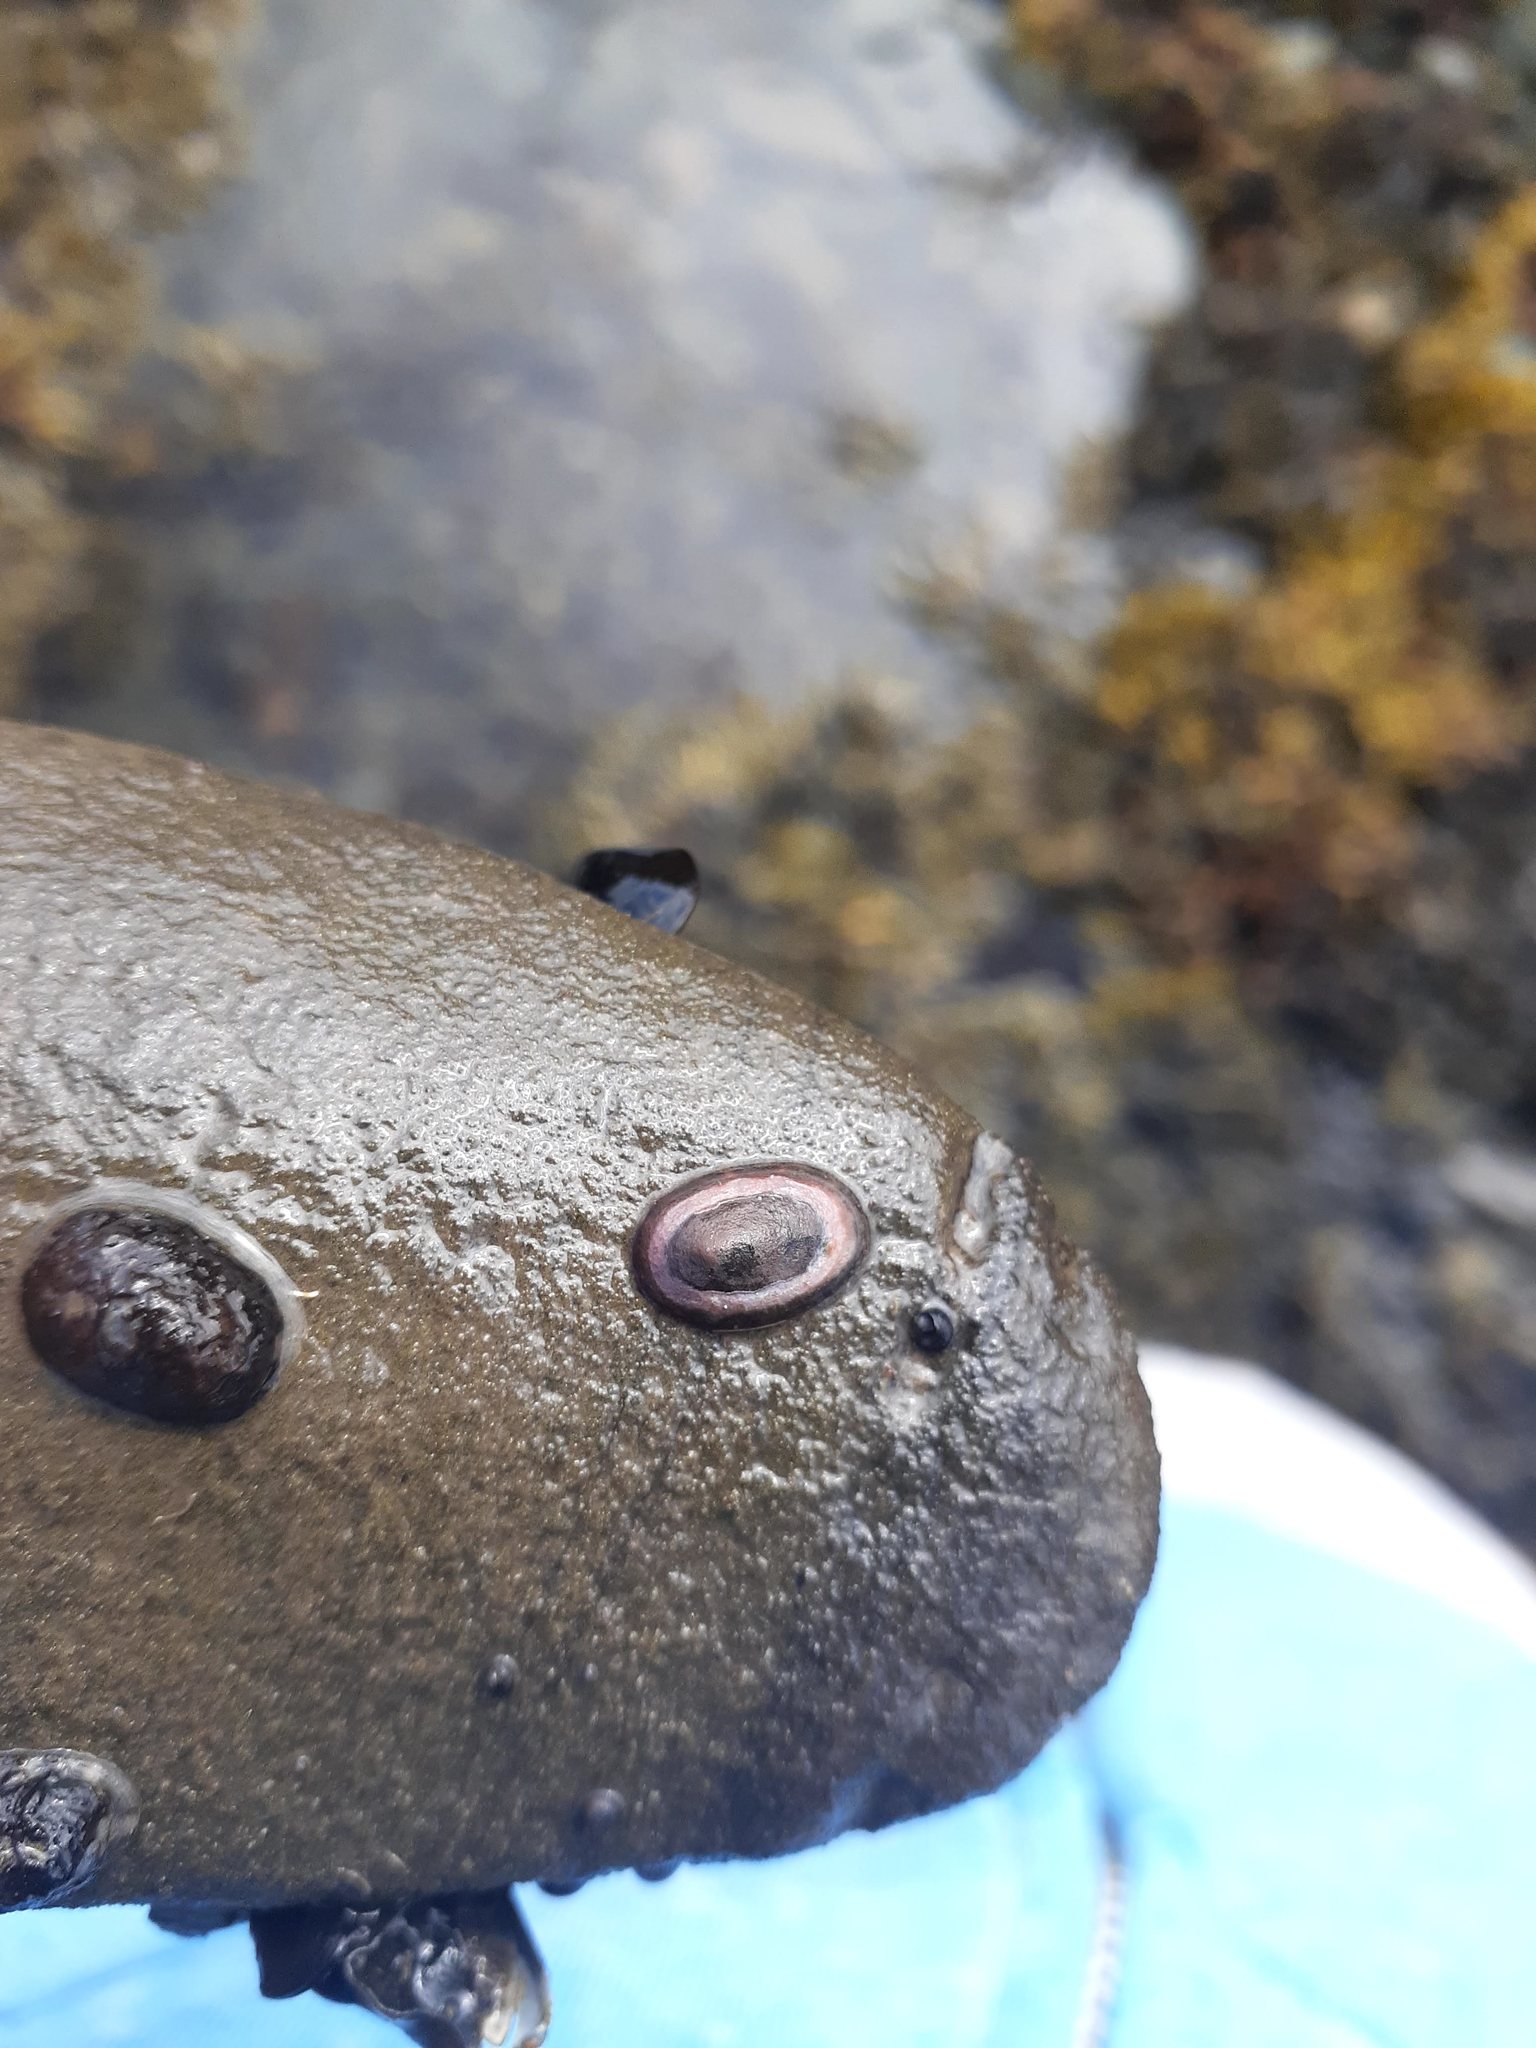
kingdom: Animalia
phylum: Mollusca
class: Gastropoda
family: Lottiidae
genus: Testudinalia
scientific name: Testudinalia testudinalis
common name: Common tortoiseshell limpet
